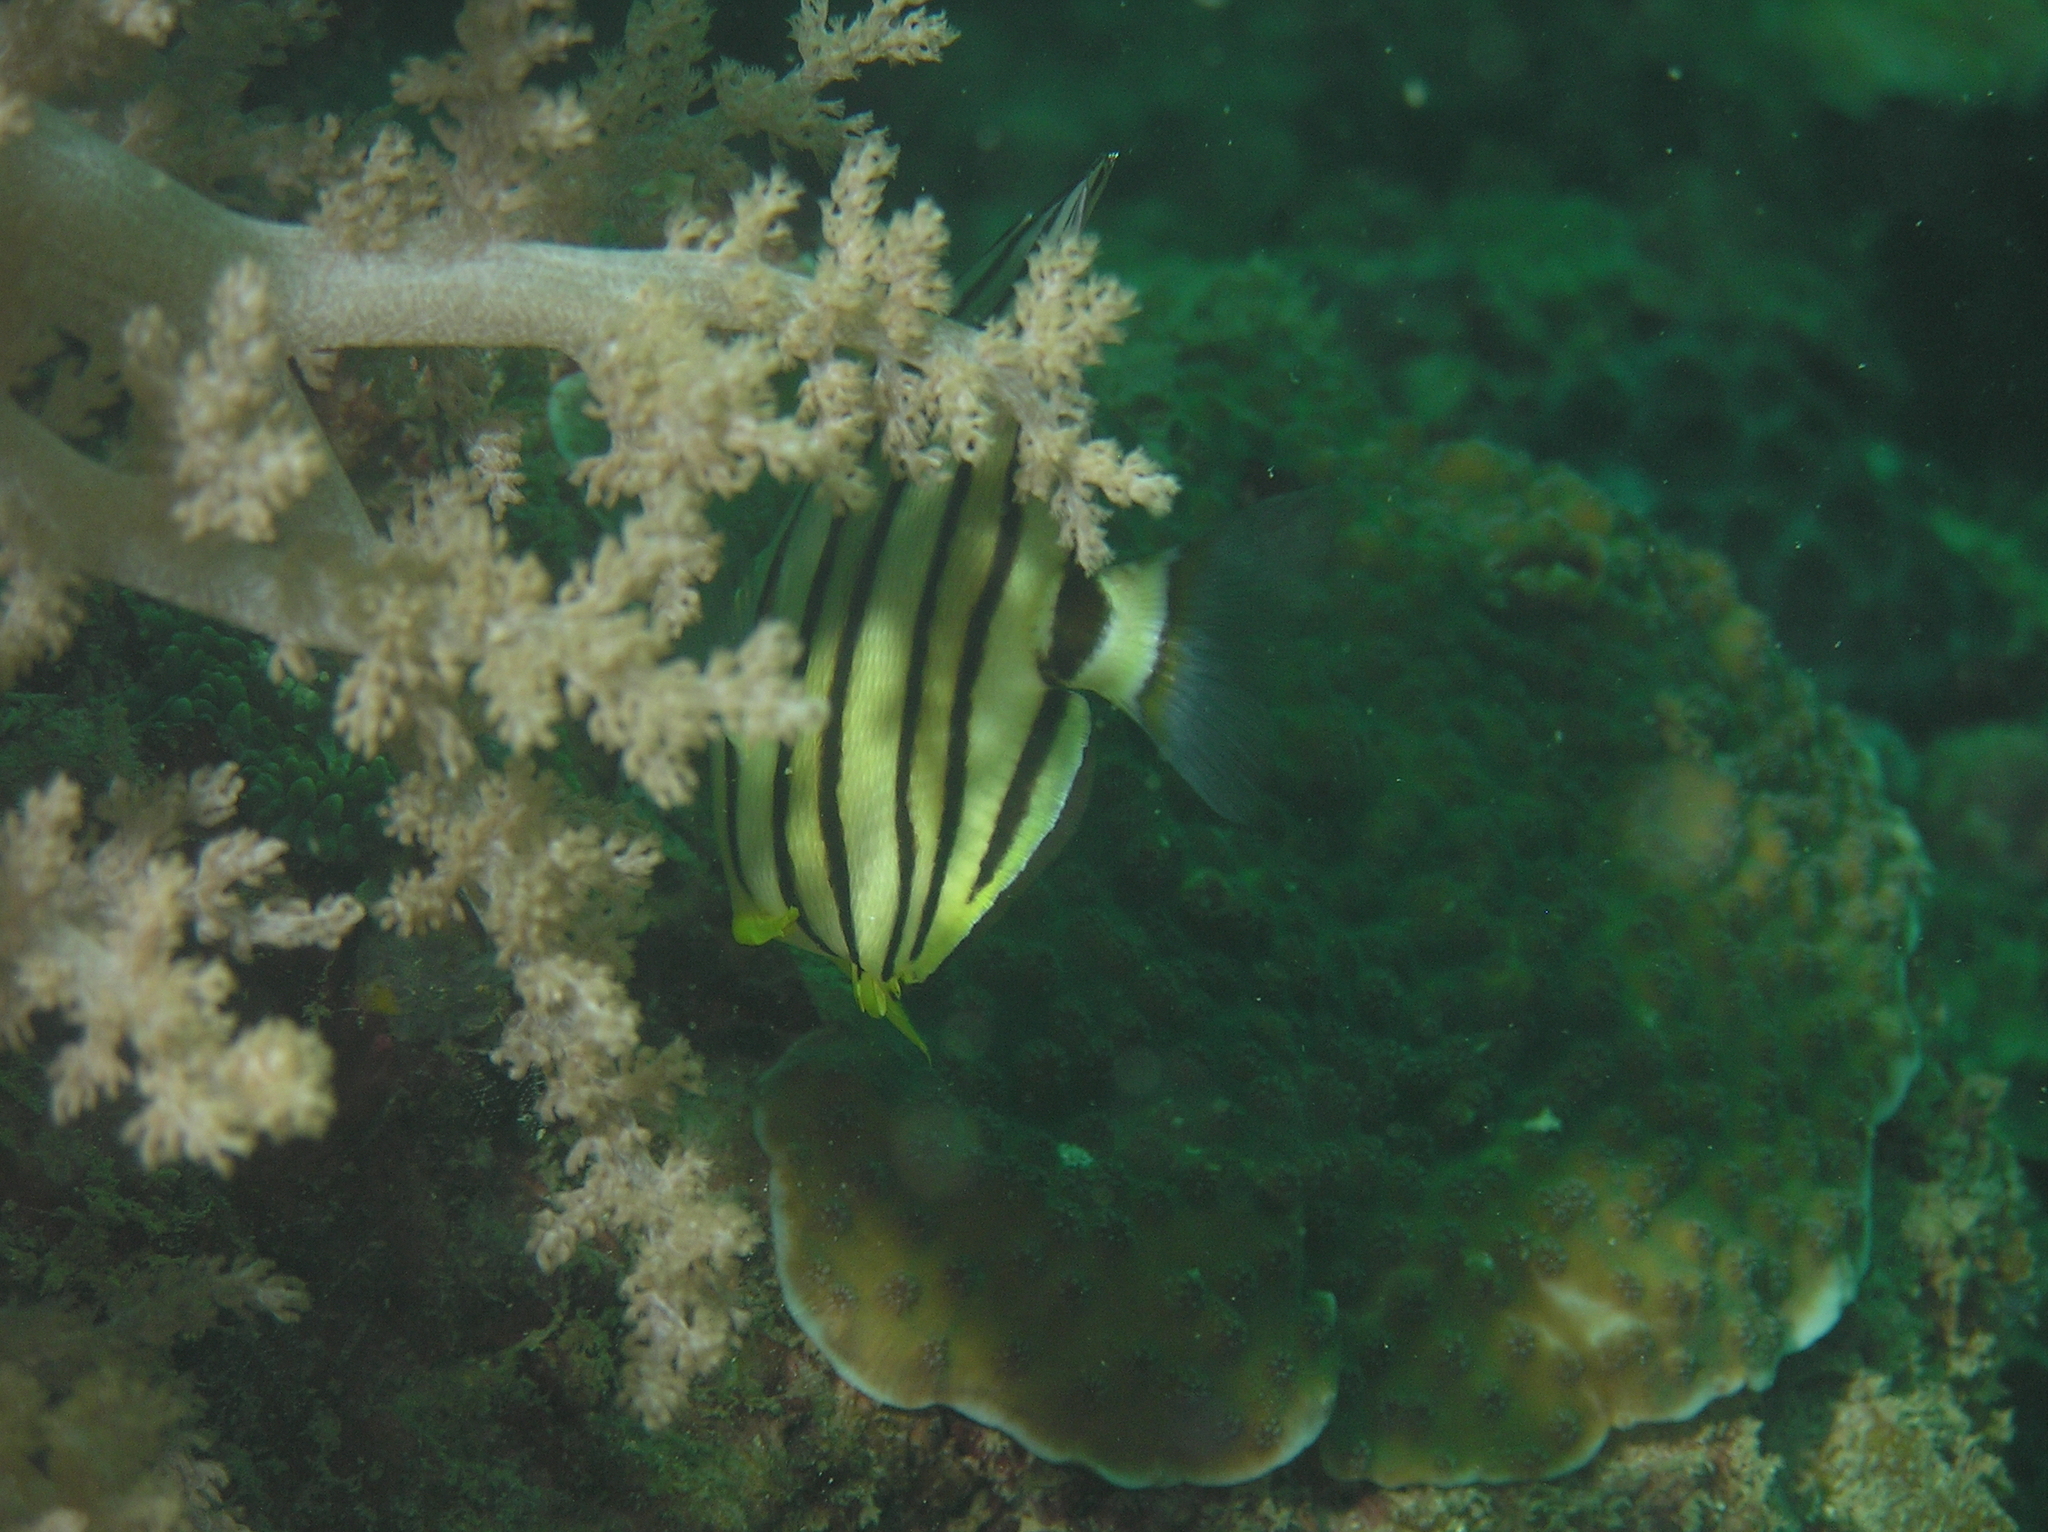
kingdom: Animalia
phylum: Chordata
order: Perciformes
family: Chaetodontidae
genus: Chaetodon
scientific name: Chaetodon octofasciatus
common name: Eightband butterflyfish
